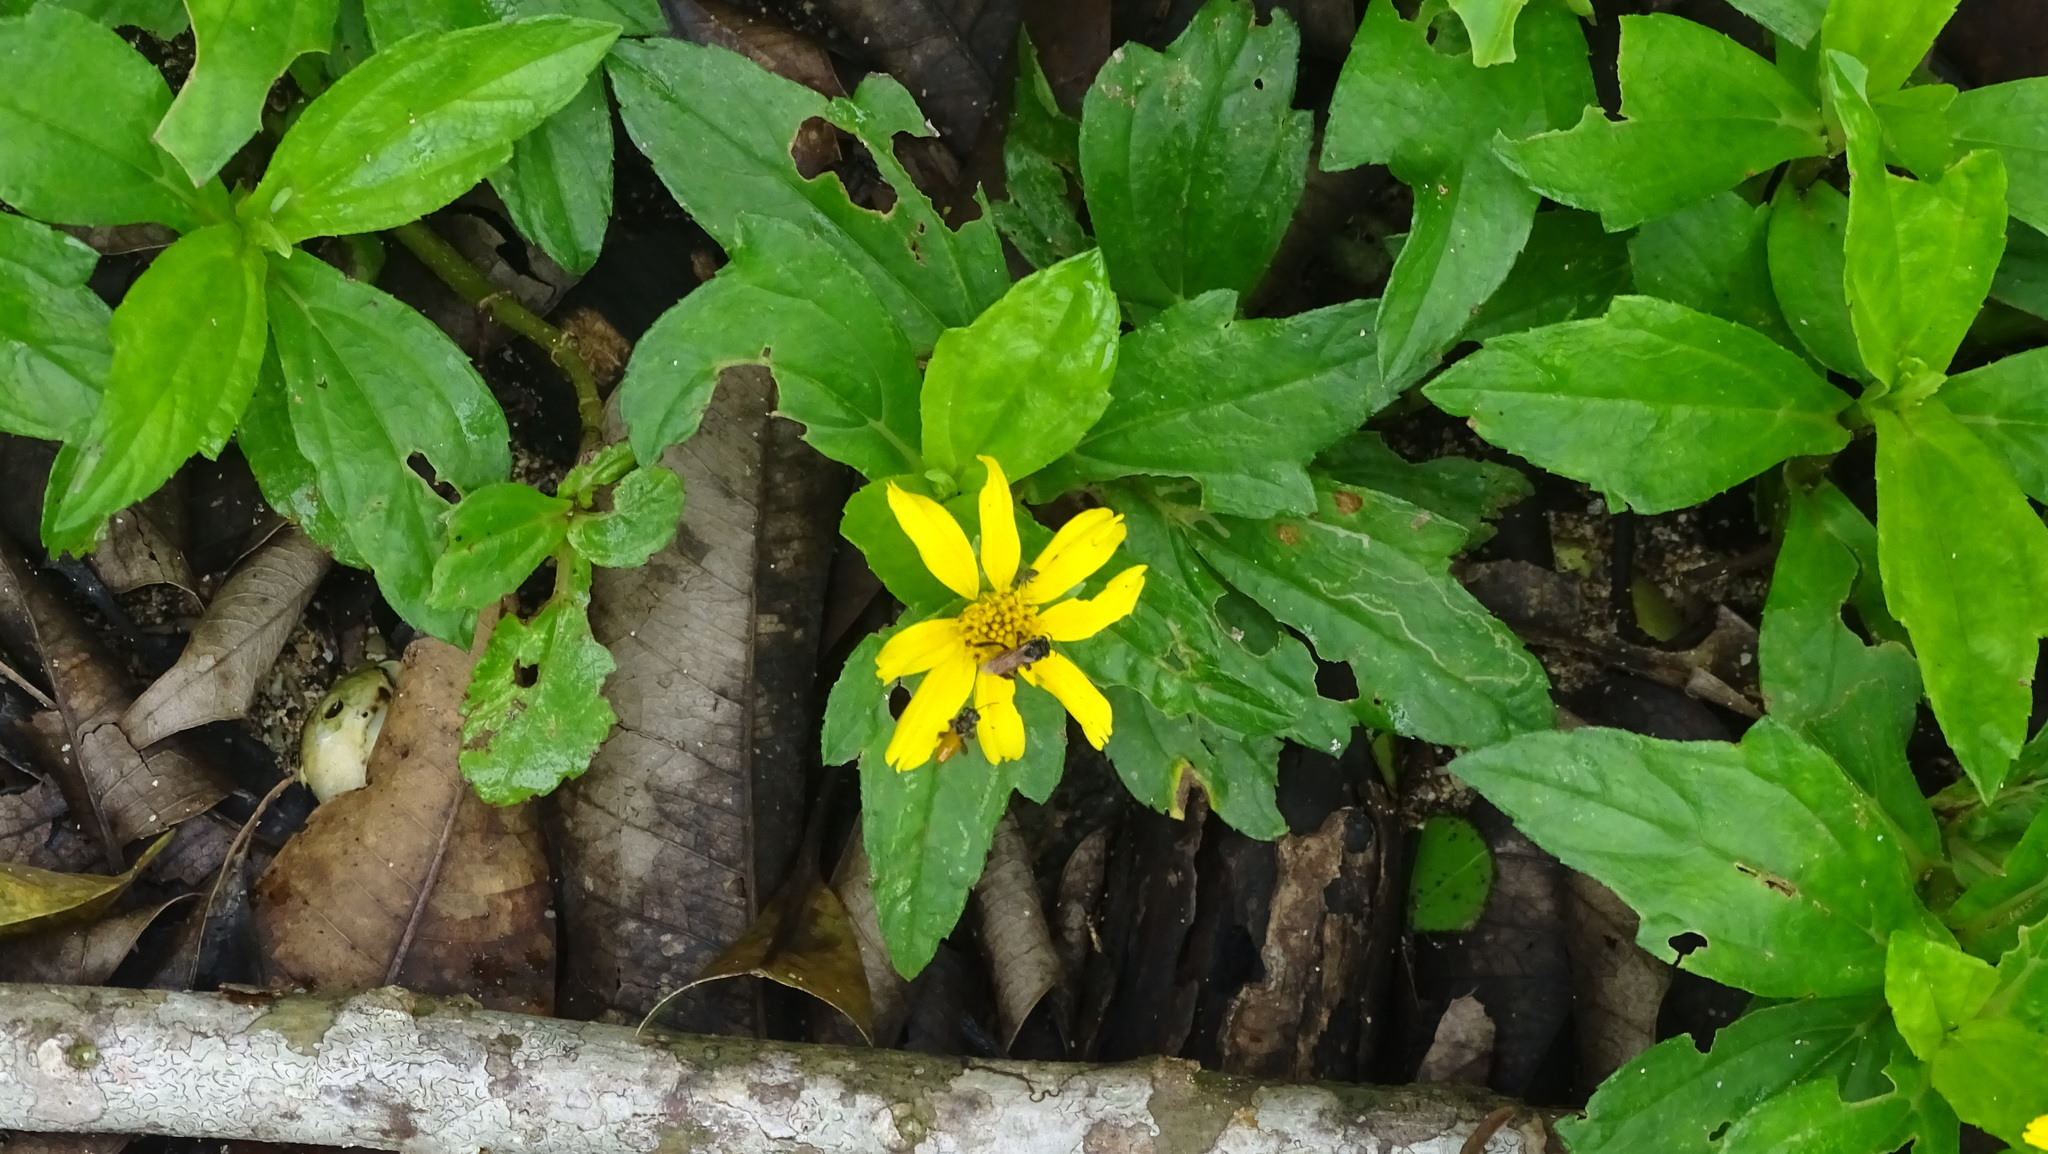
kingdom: Plantae
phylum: Tracheophyta
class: Magnoliopsida
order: Asterales
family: Asteraceae
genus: Sphagneticola
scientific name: Sphagneticola trilobata
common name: Bay biscayne creeping-oxeye
